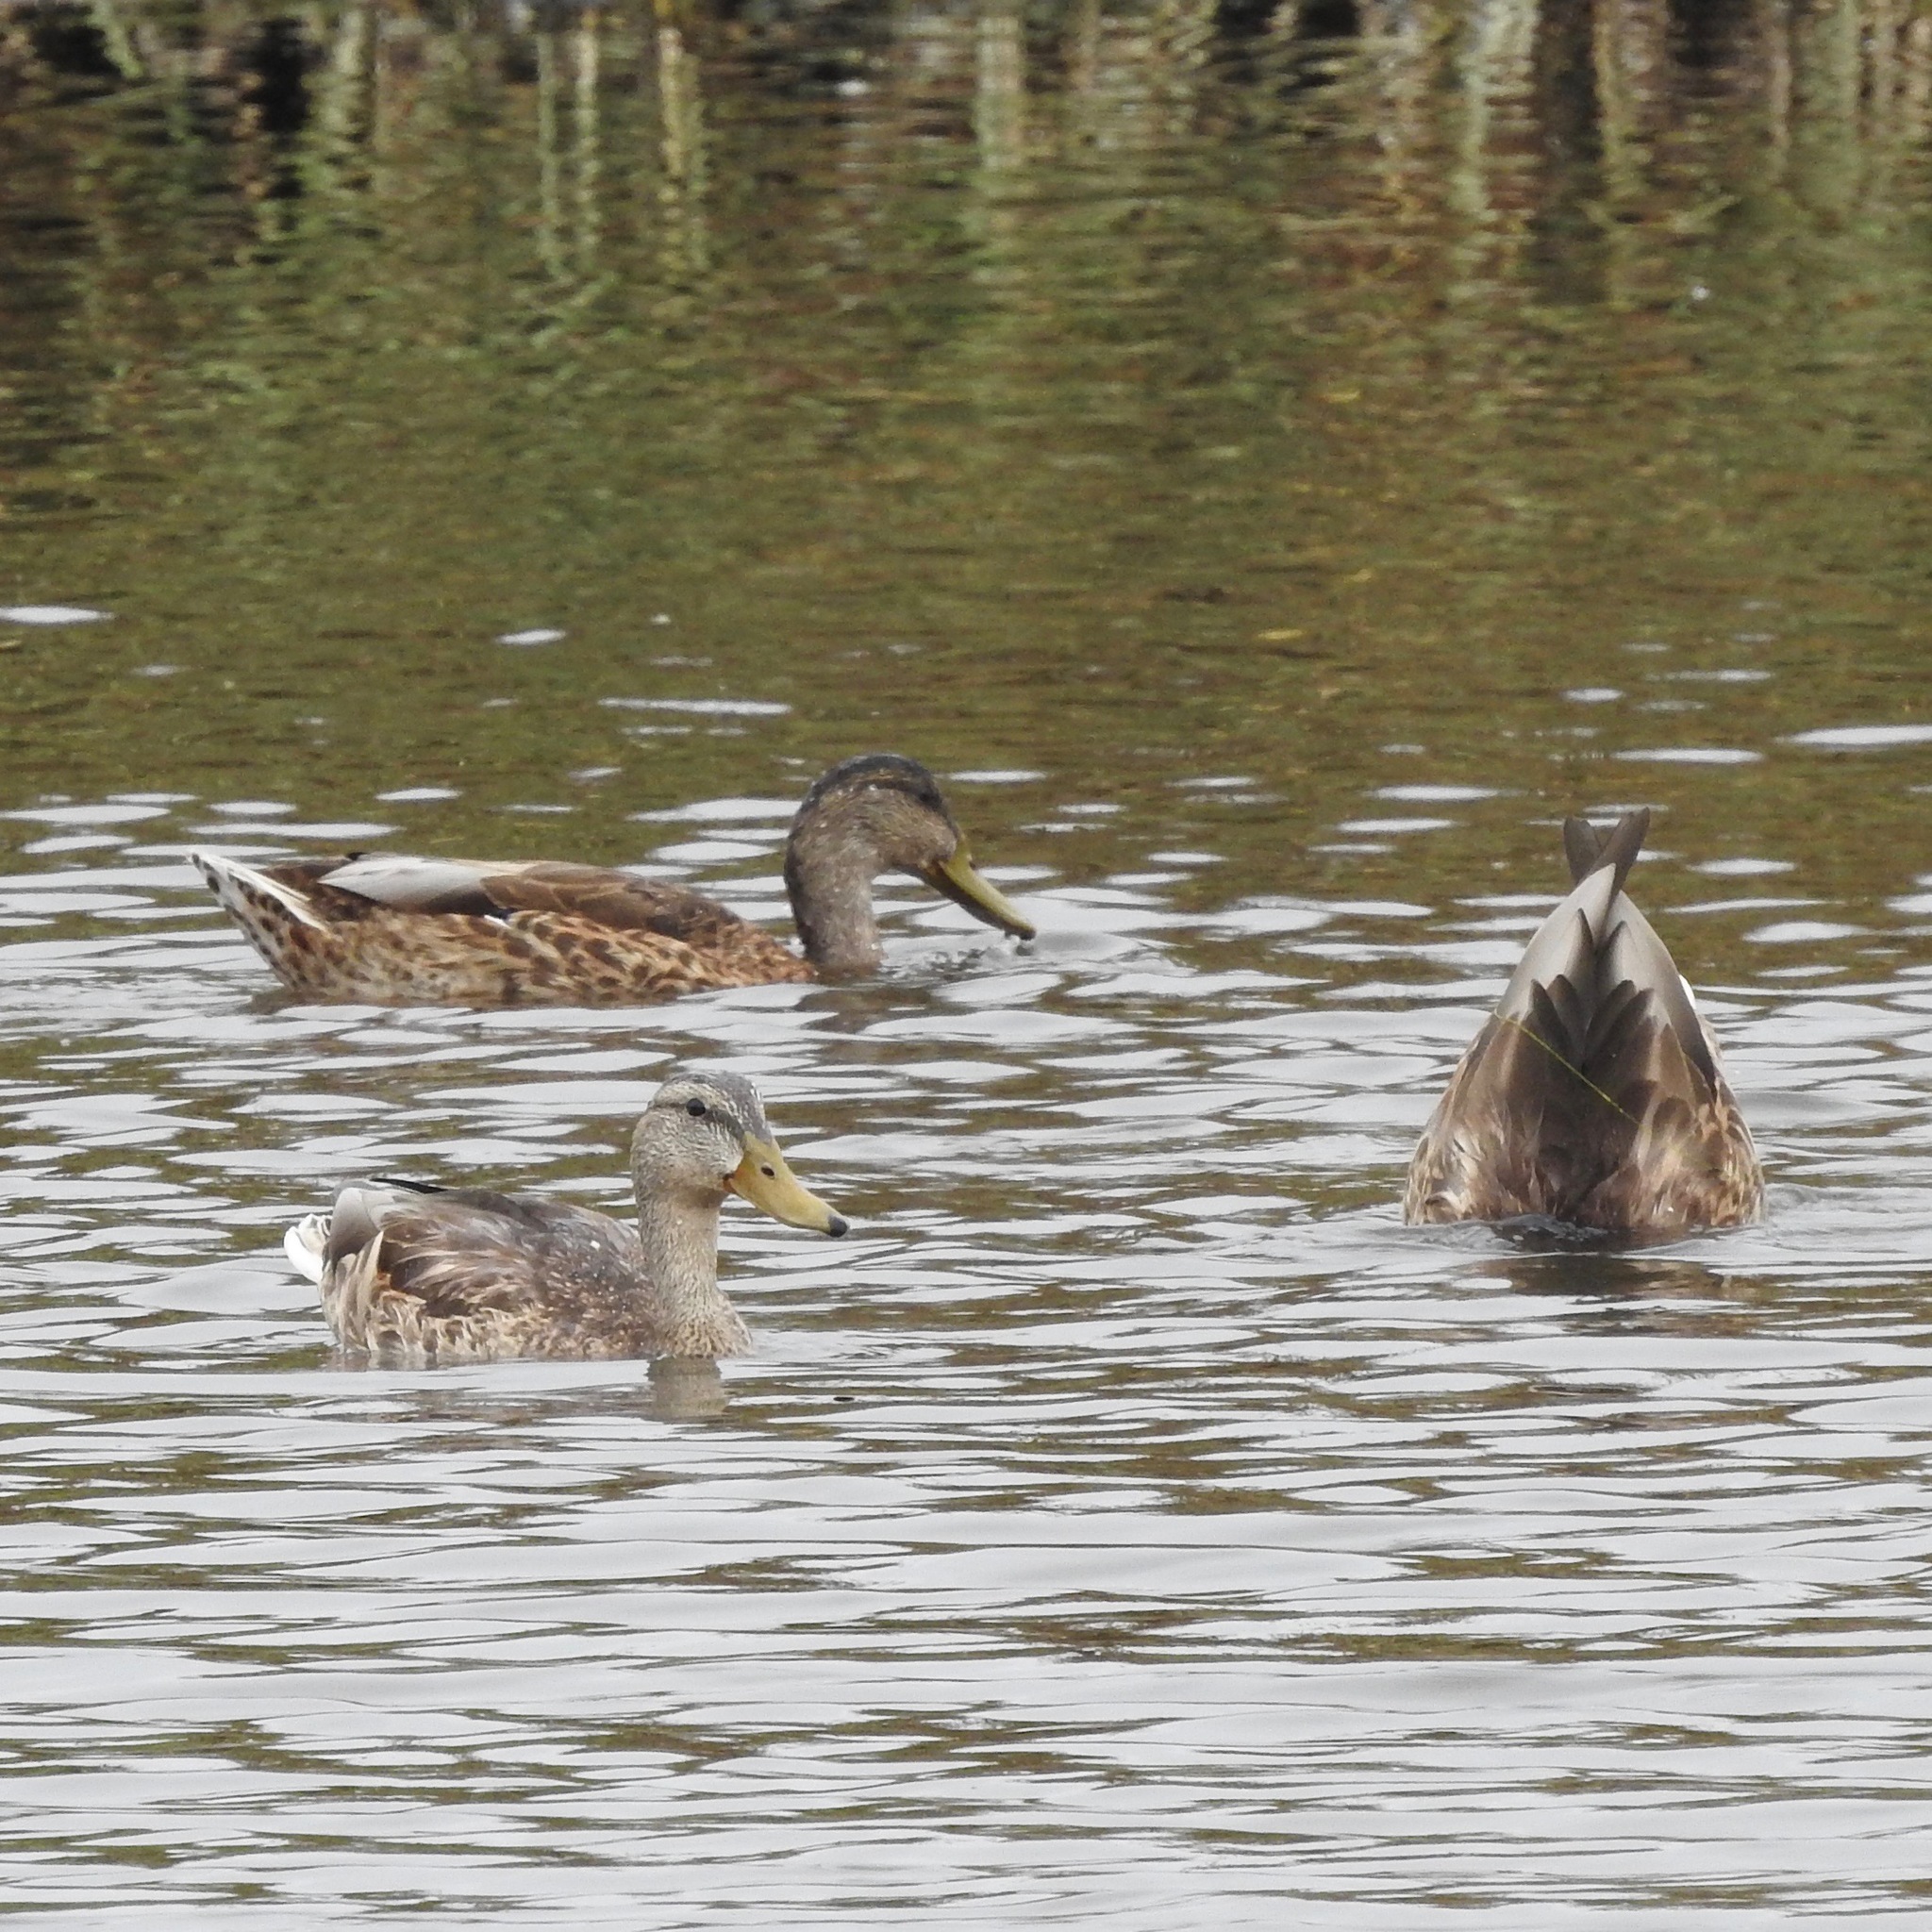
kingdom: Animalia
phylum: Chordata
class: Aves
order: Anseriformes
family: Anatidae
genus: Anas
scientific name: Anas platyrhynchos
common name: Mallard
